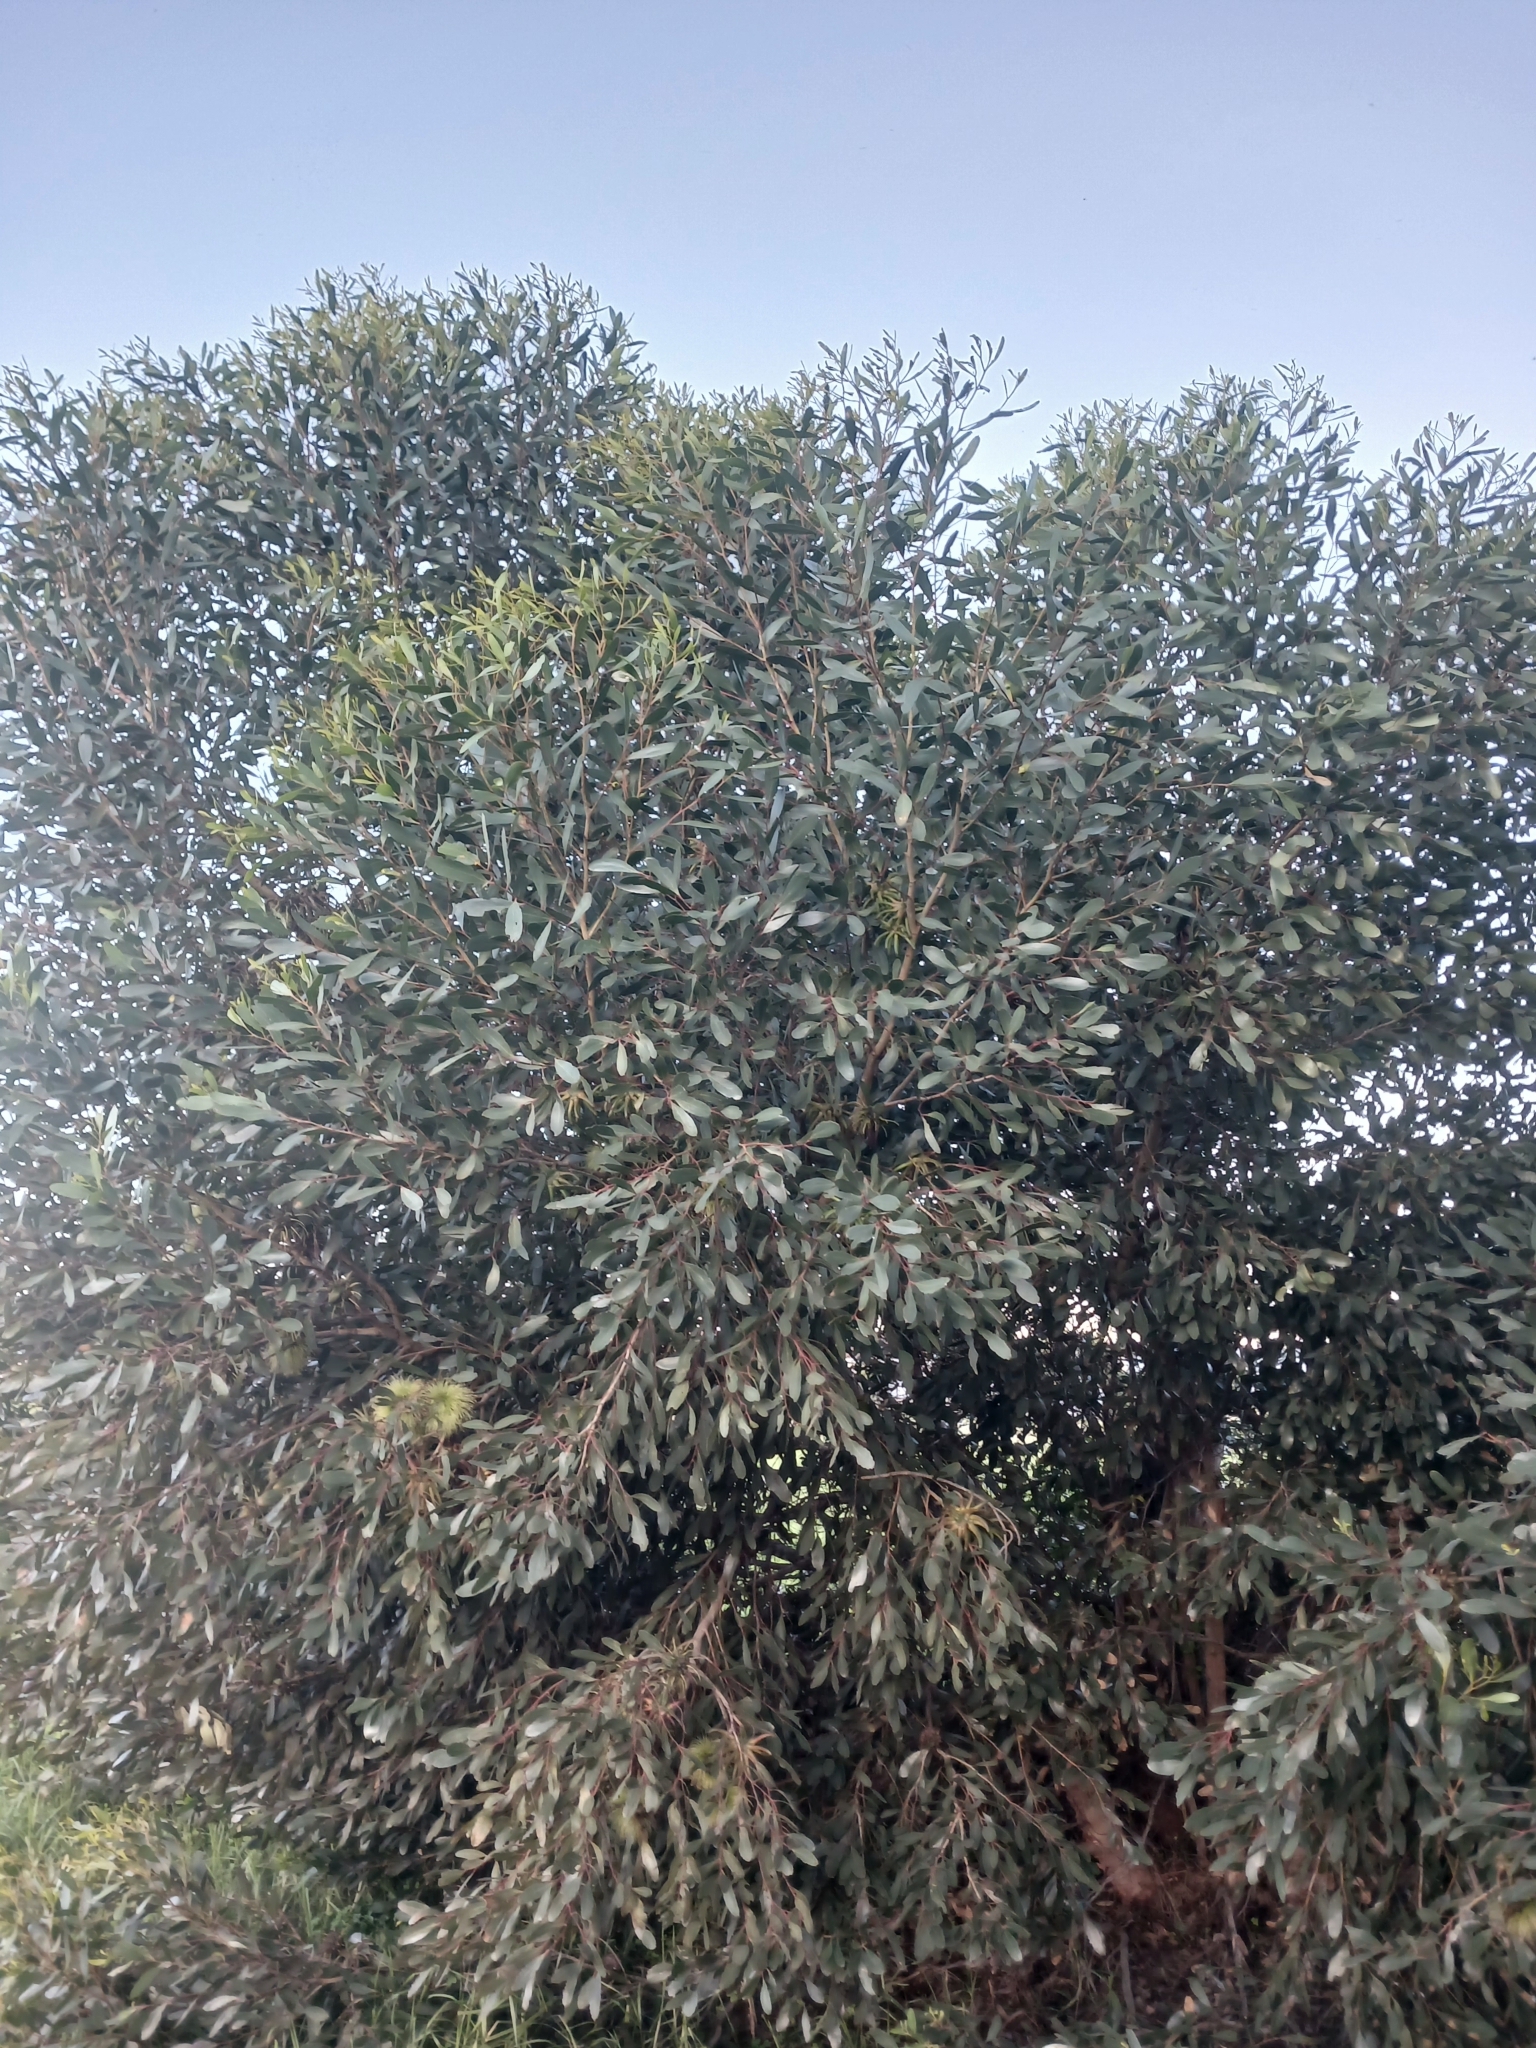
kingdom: Plantae
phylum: Tracheophyta
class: Magnoliopsida
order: Myrtales
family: Myrtaceae
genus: Eucalyptus
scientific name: Eucalyptus conferruminata
